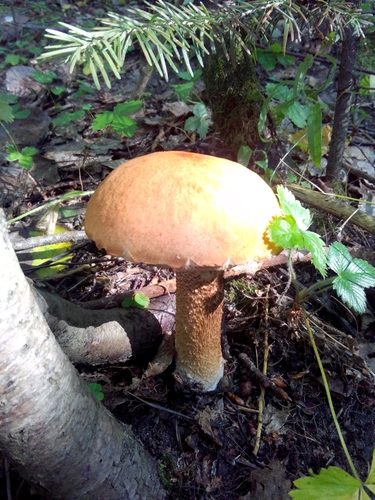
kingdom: Fungi
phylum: Basidiomycota
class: Agaricomycetes
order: Boletales
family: Boletaceae
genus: Leccinum
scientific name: Leccinum
